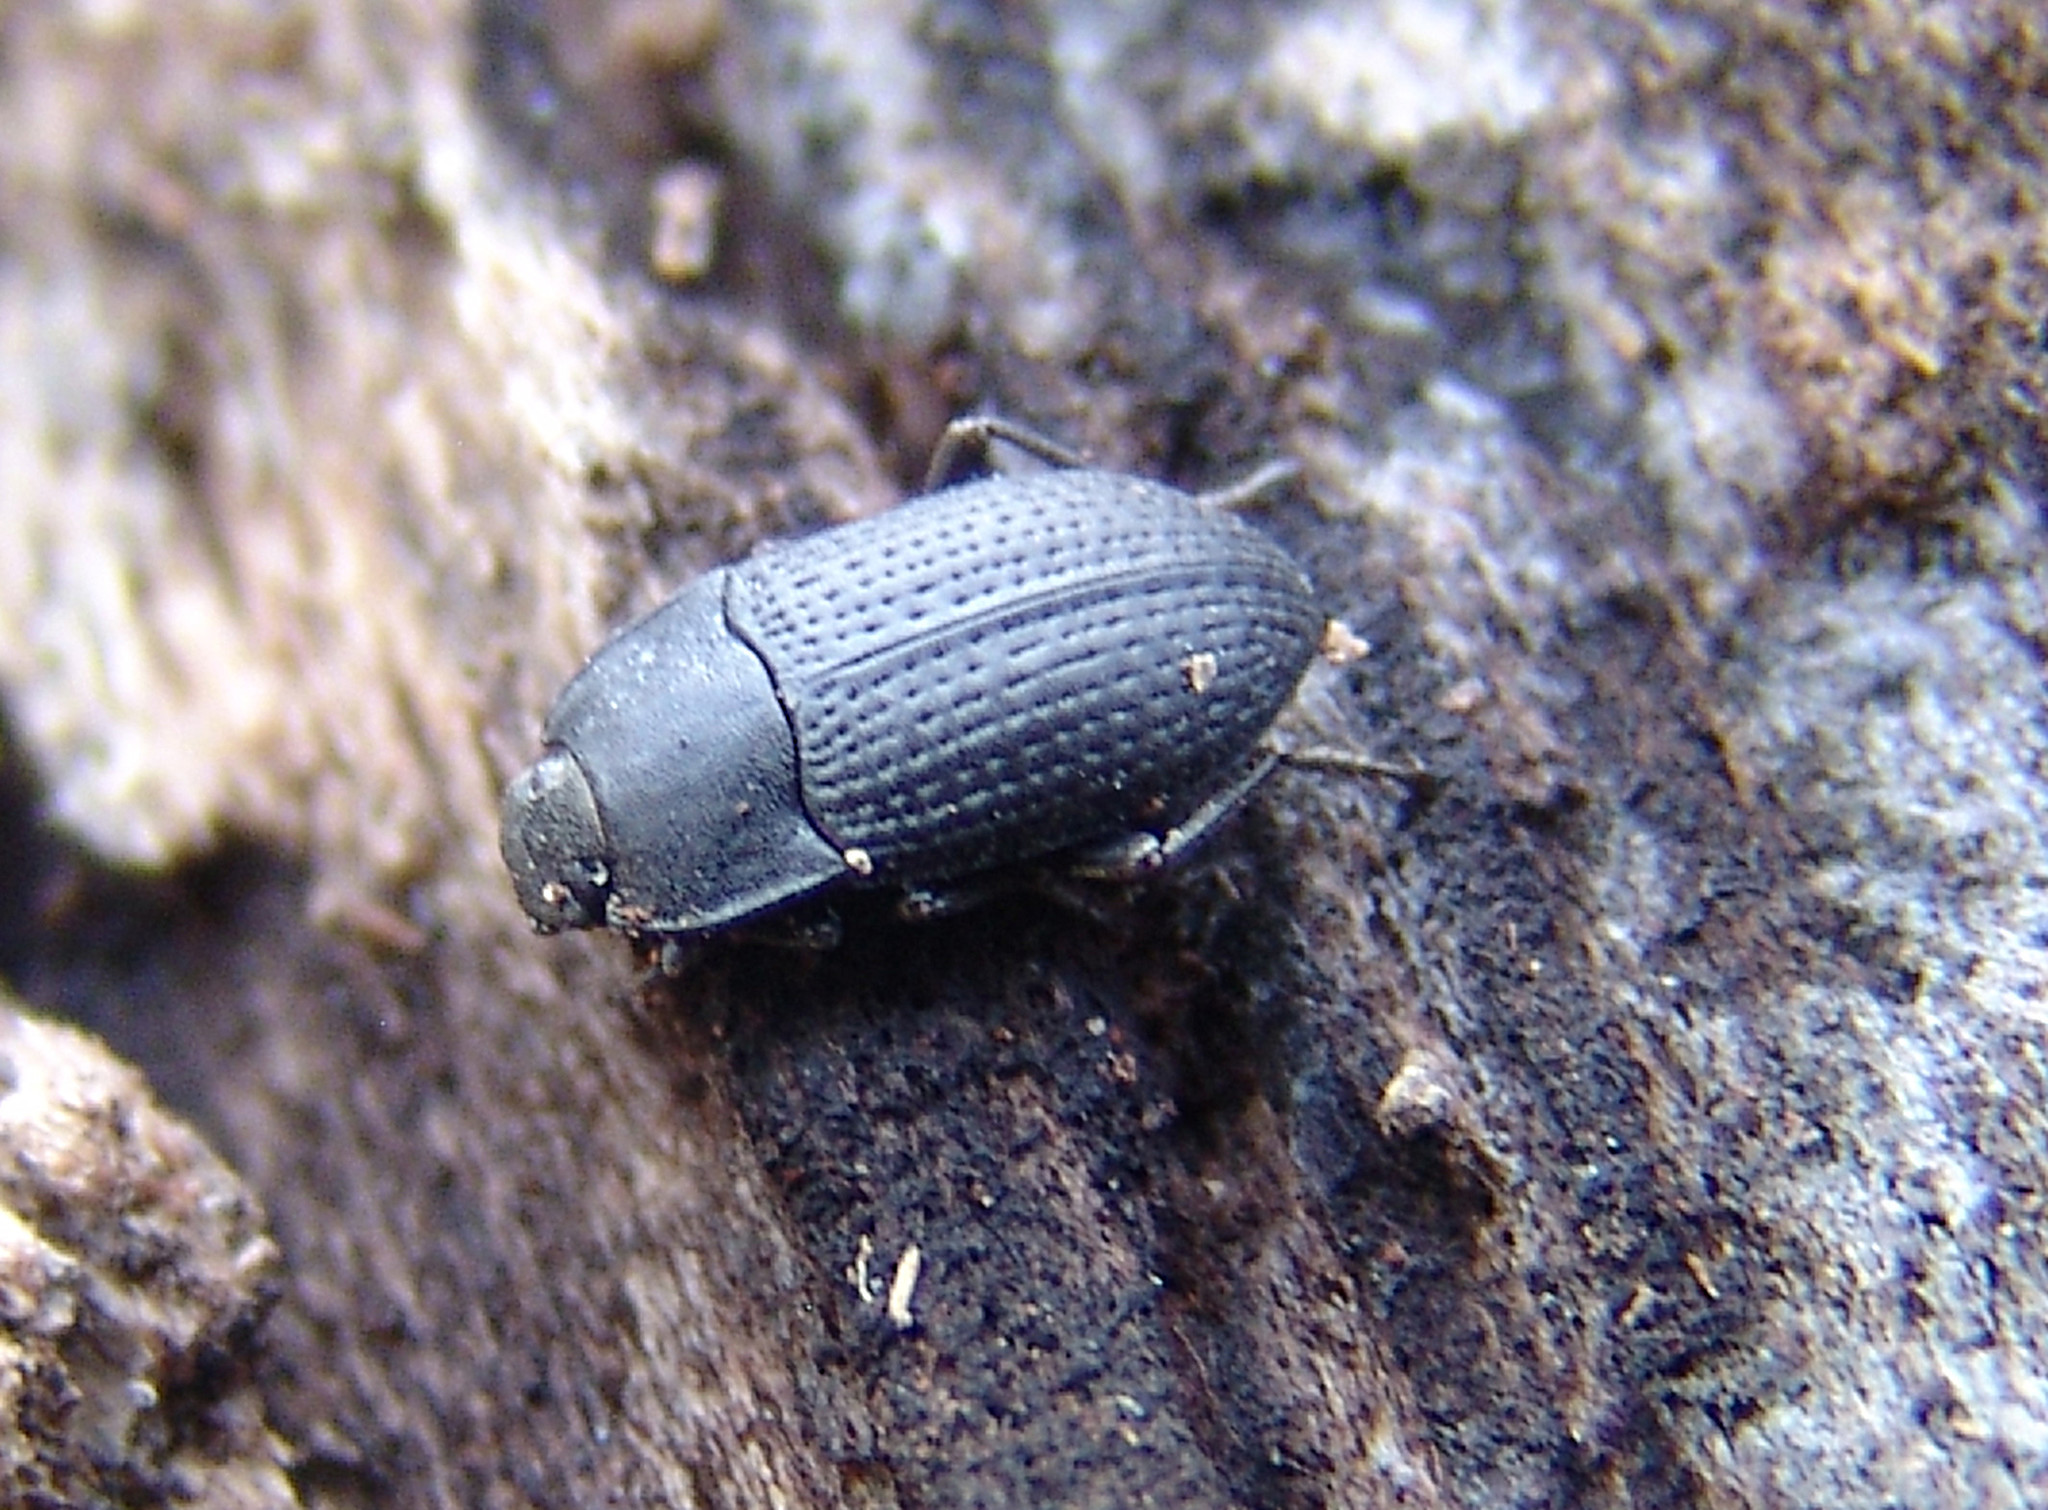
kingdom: Animalia
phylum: Arthropoda
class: Insecta
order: Coleoptera
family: Tenebrionidae
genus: Asiopus
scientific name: Asiopus
